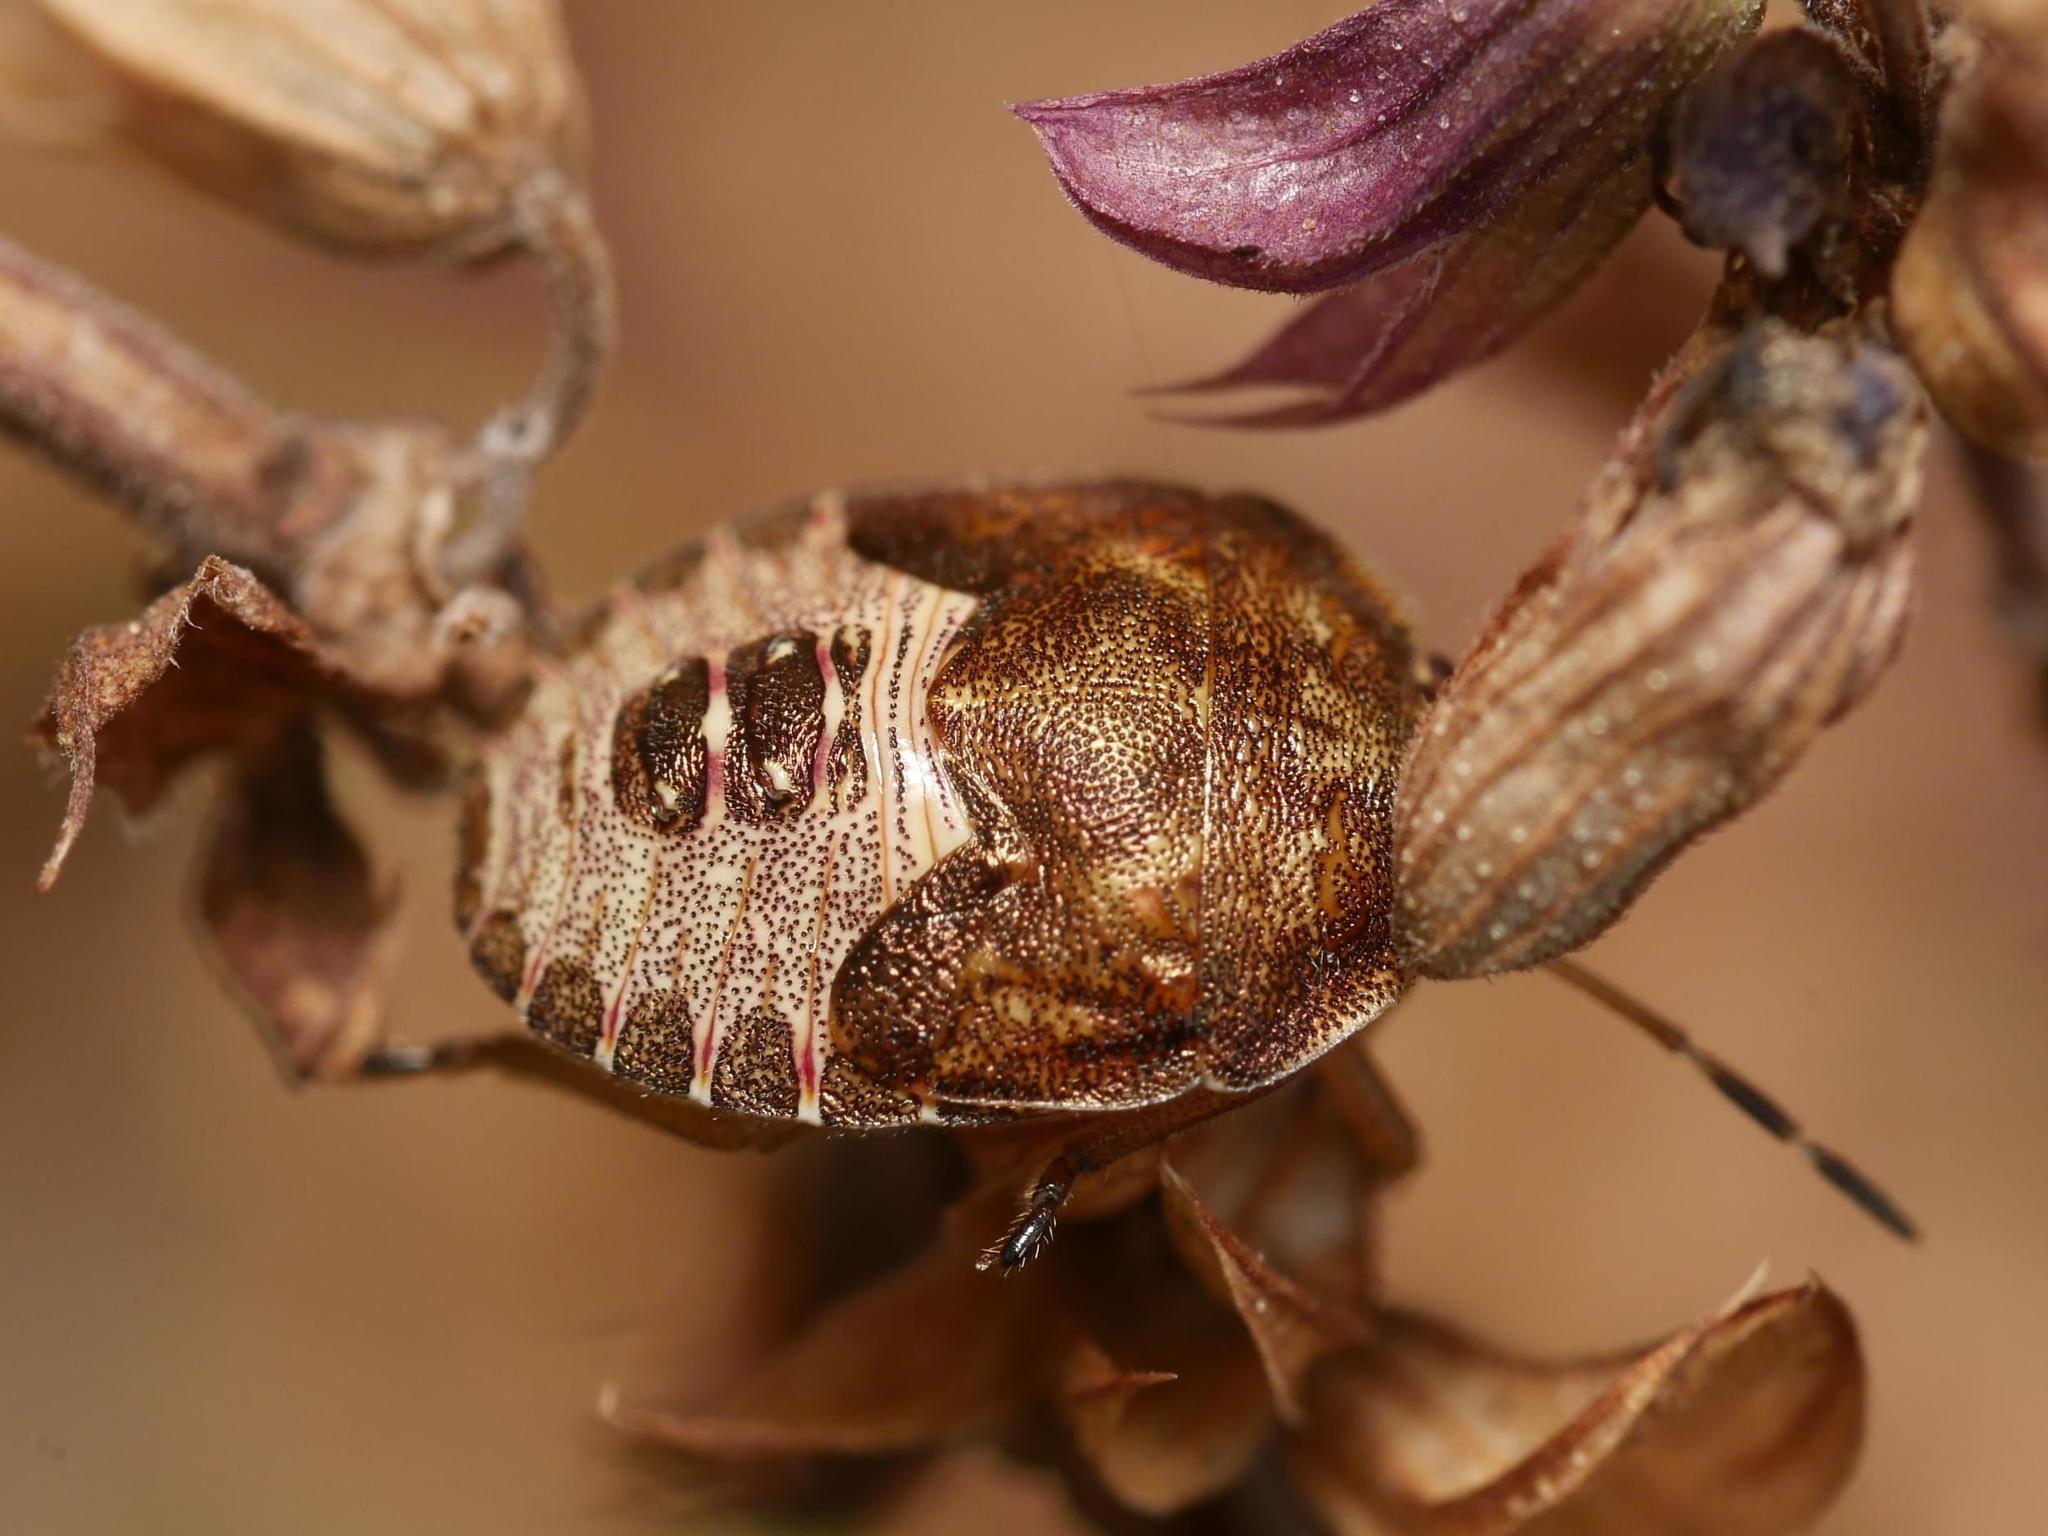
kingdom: Animalia
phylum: Arthropoda
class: Insecta
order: Hemiptera
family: Pentatomidae
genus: Holcostethus
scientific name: Holcostethus strictus
